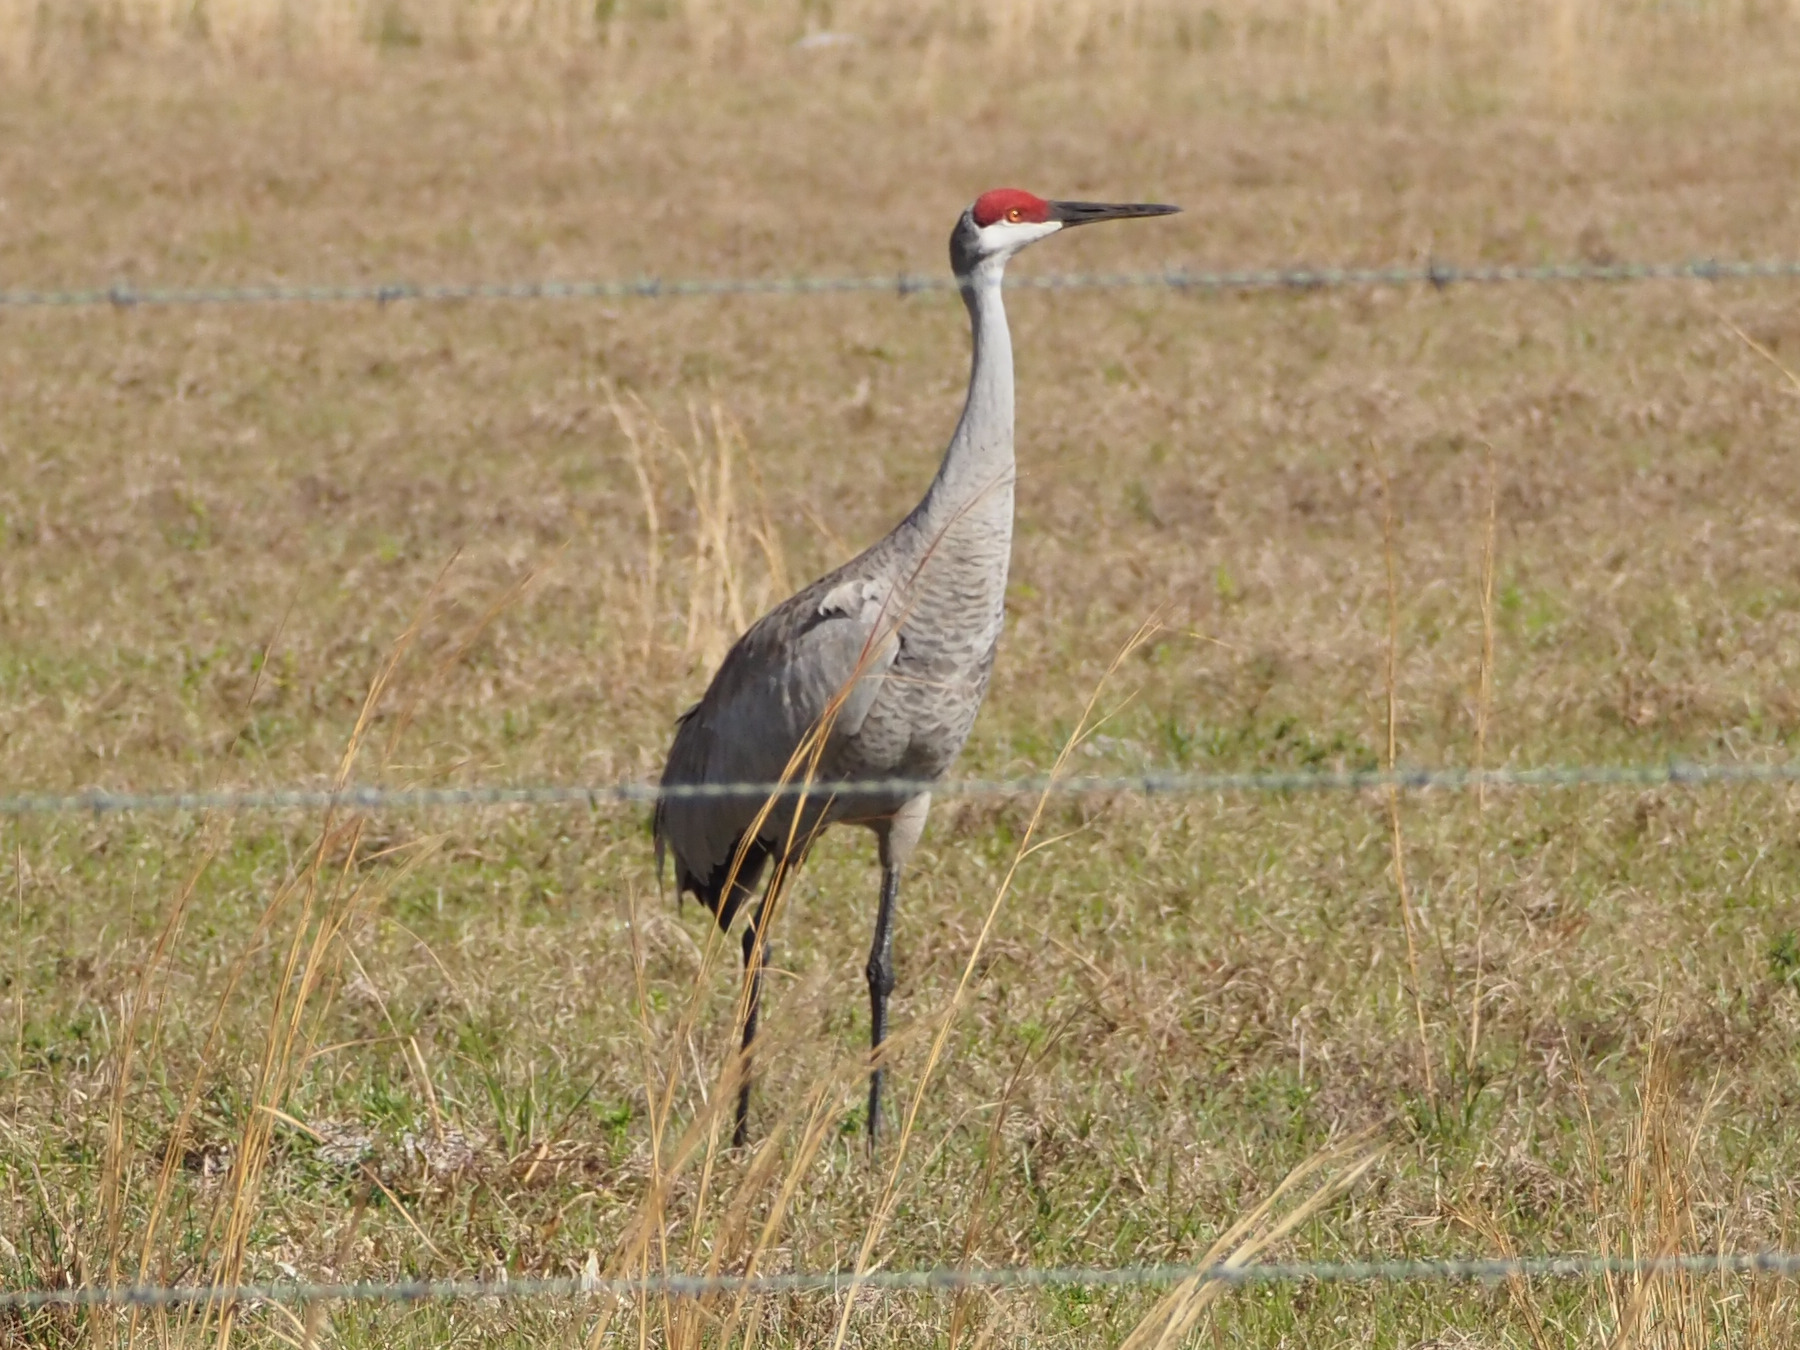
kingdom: Animalia
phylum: Chordata
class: Aves
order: Gruiformes
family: Gruidae
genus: Grus
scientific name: Grus canadensis
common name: Sandhill crane
